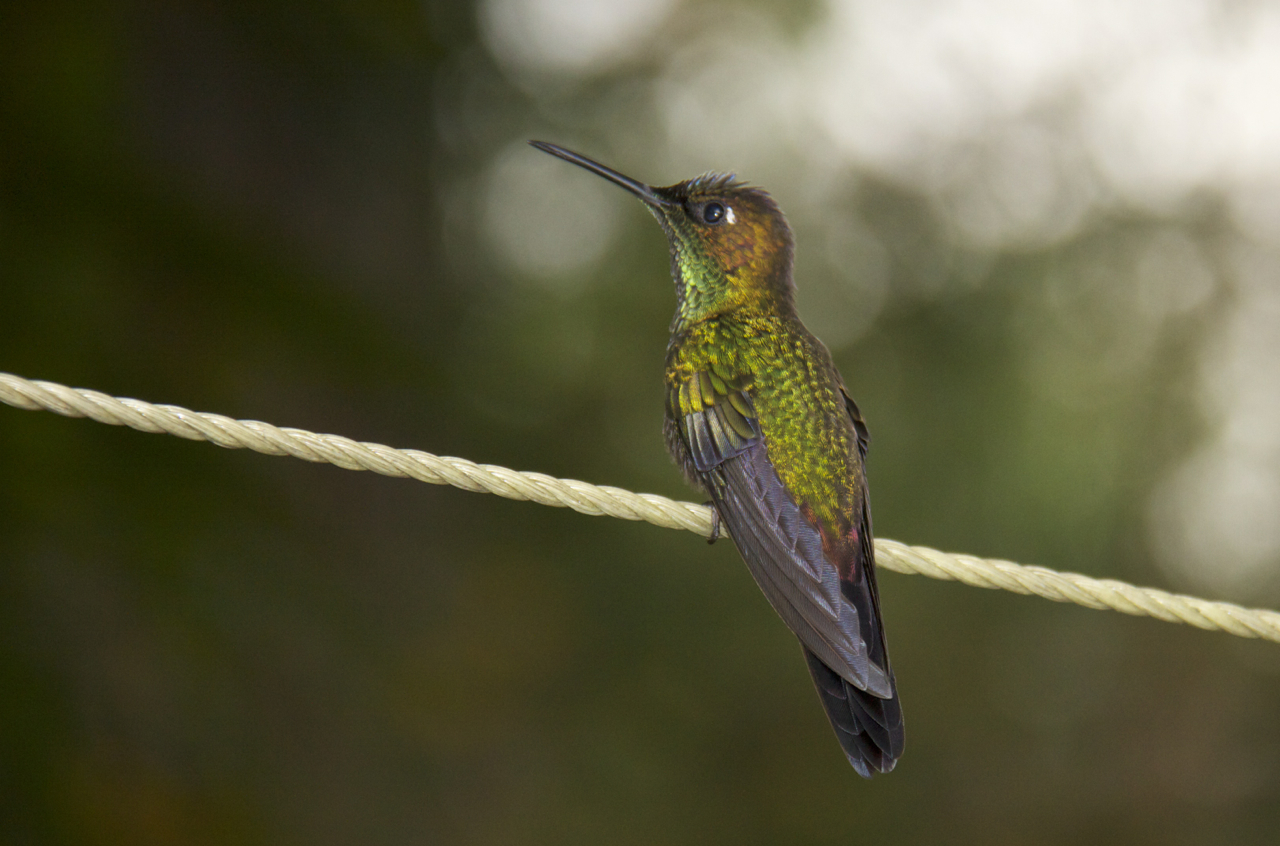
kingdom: Animalia
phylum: Chordata
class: Aves
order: Apodiformes
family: Trochilidae
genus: Heliodoxa
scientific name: Heliodoxa leadbeateri
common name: Violet-fronted brilliant
